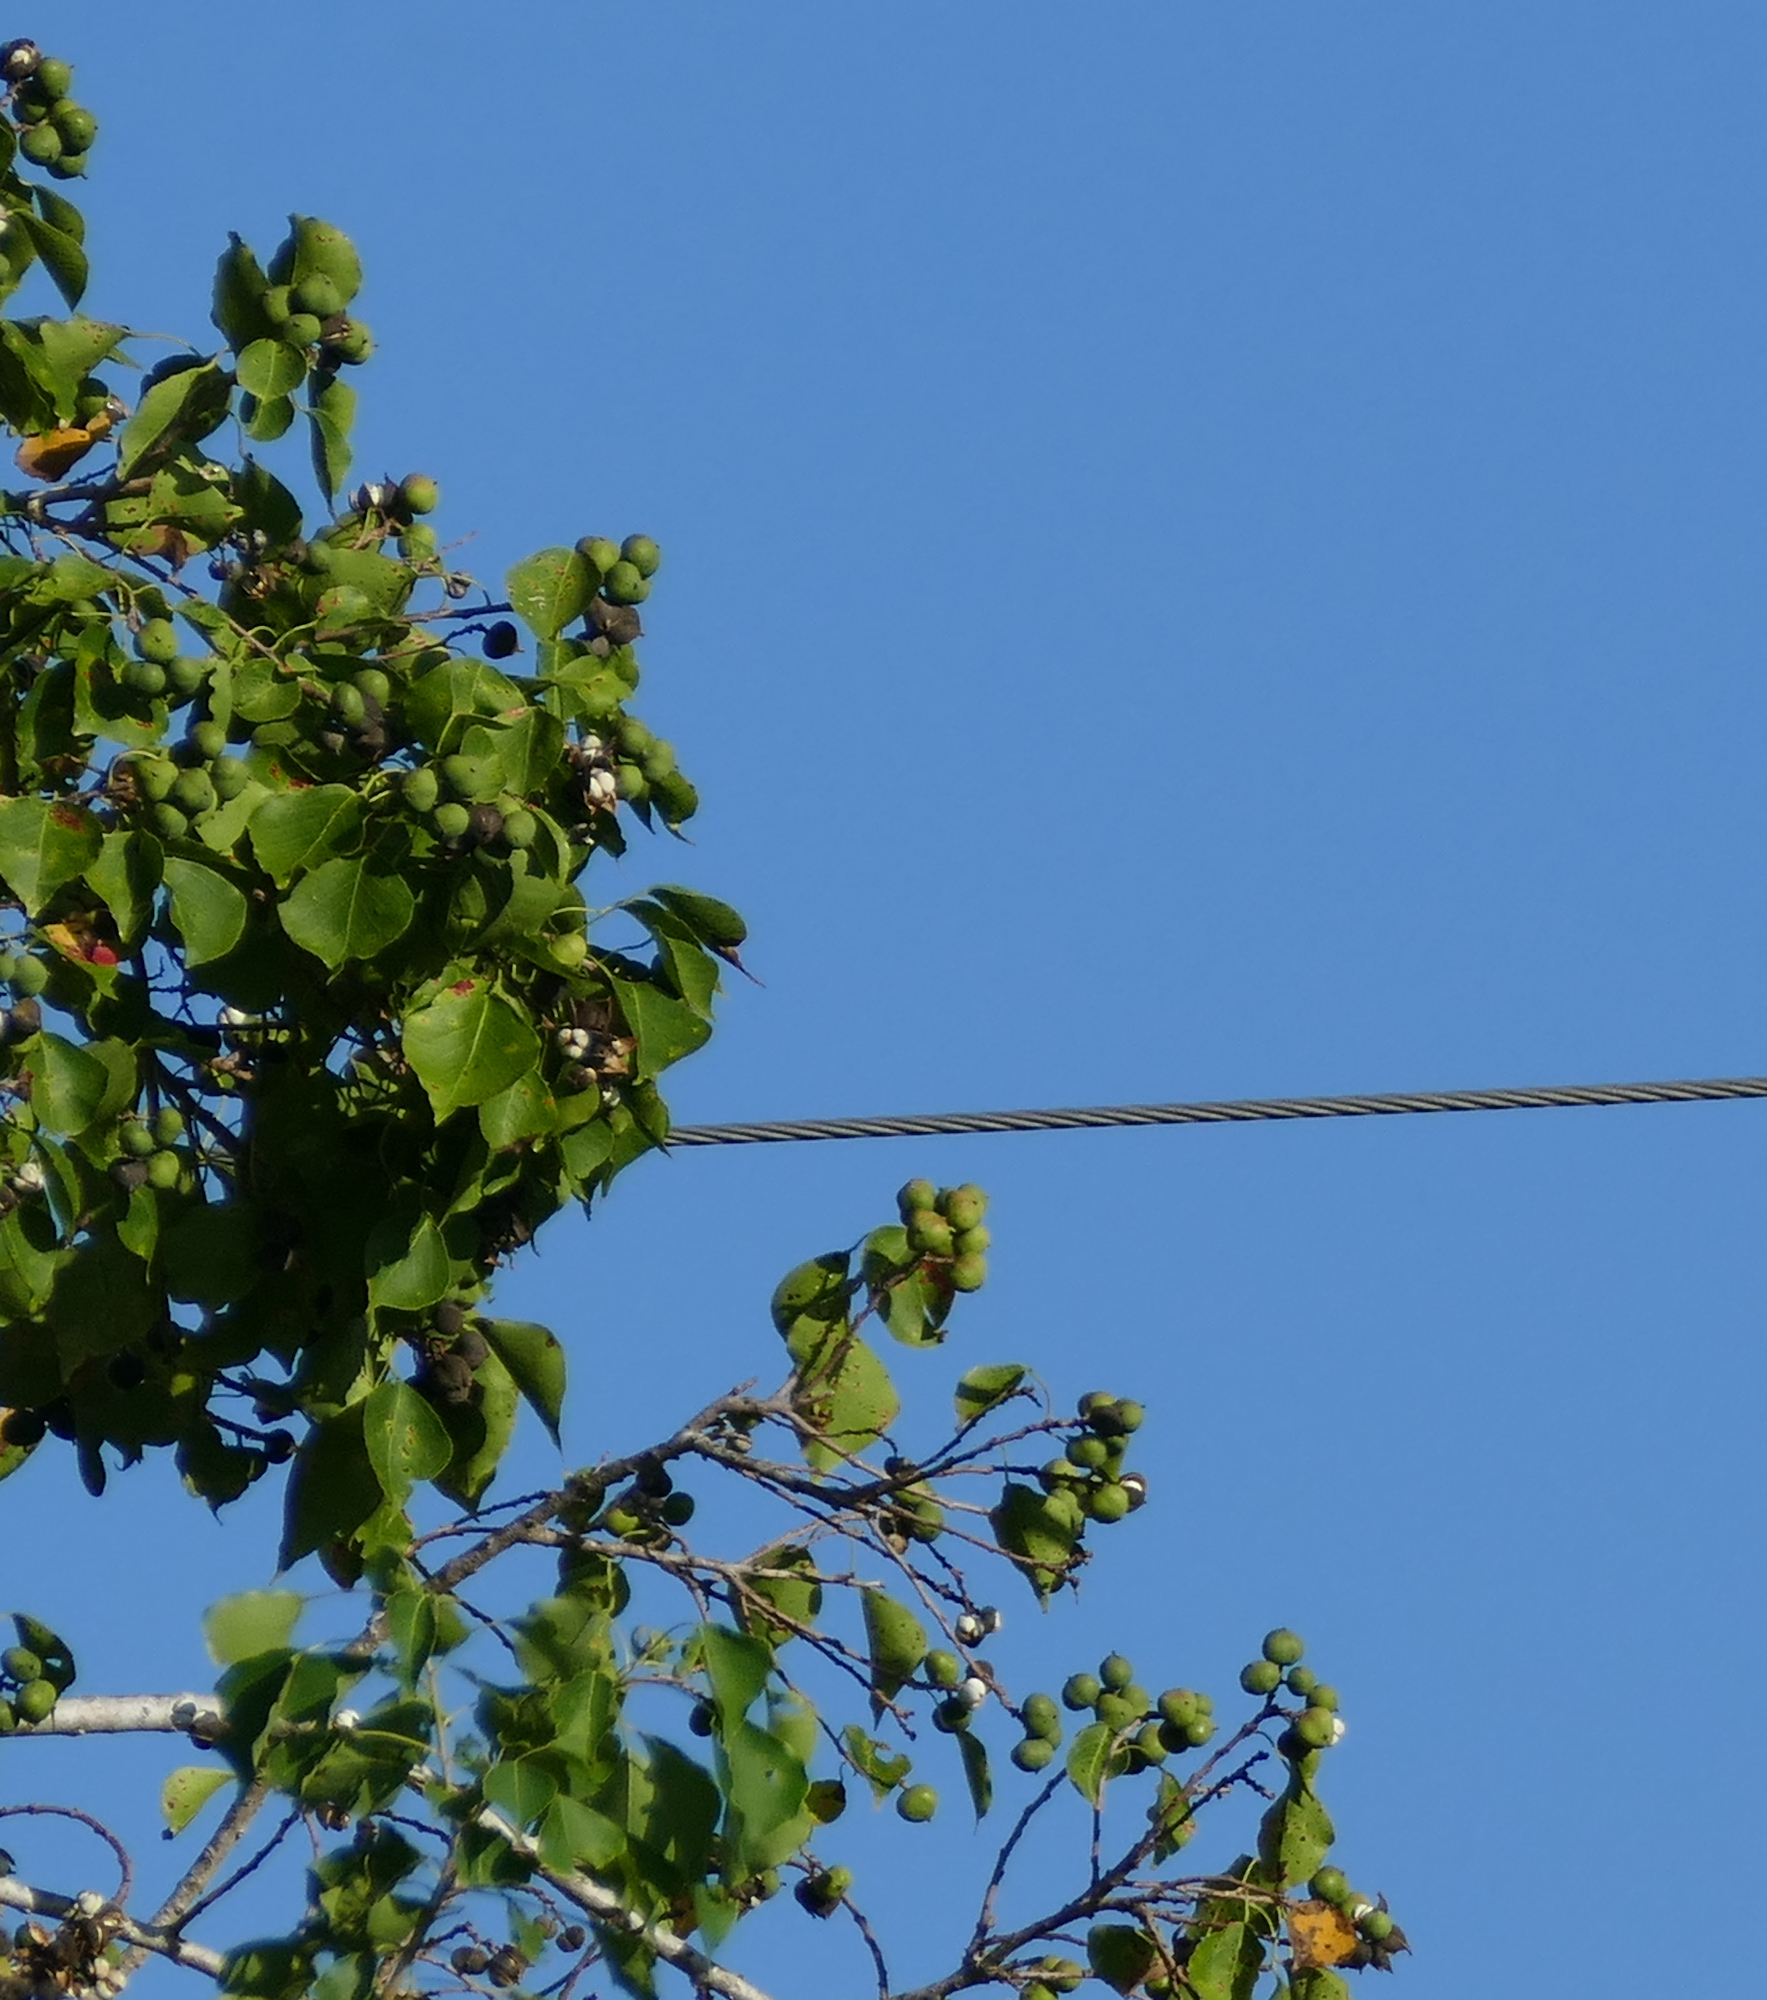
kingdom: Plantae
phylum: Tracheophyta
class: Magnoliopsida
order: Malpighiales
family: Euphorbiaceae
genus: Triadica
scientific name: Triadica sebifera
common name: Chinese tallow
